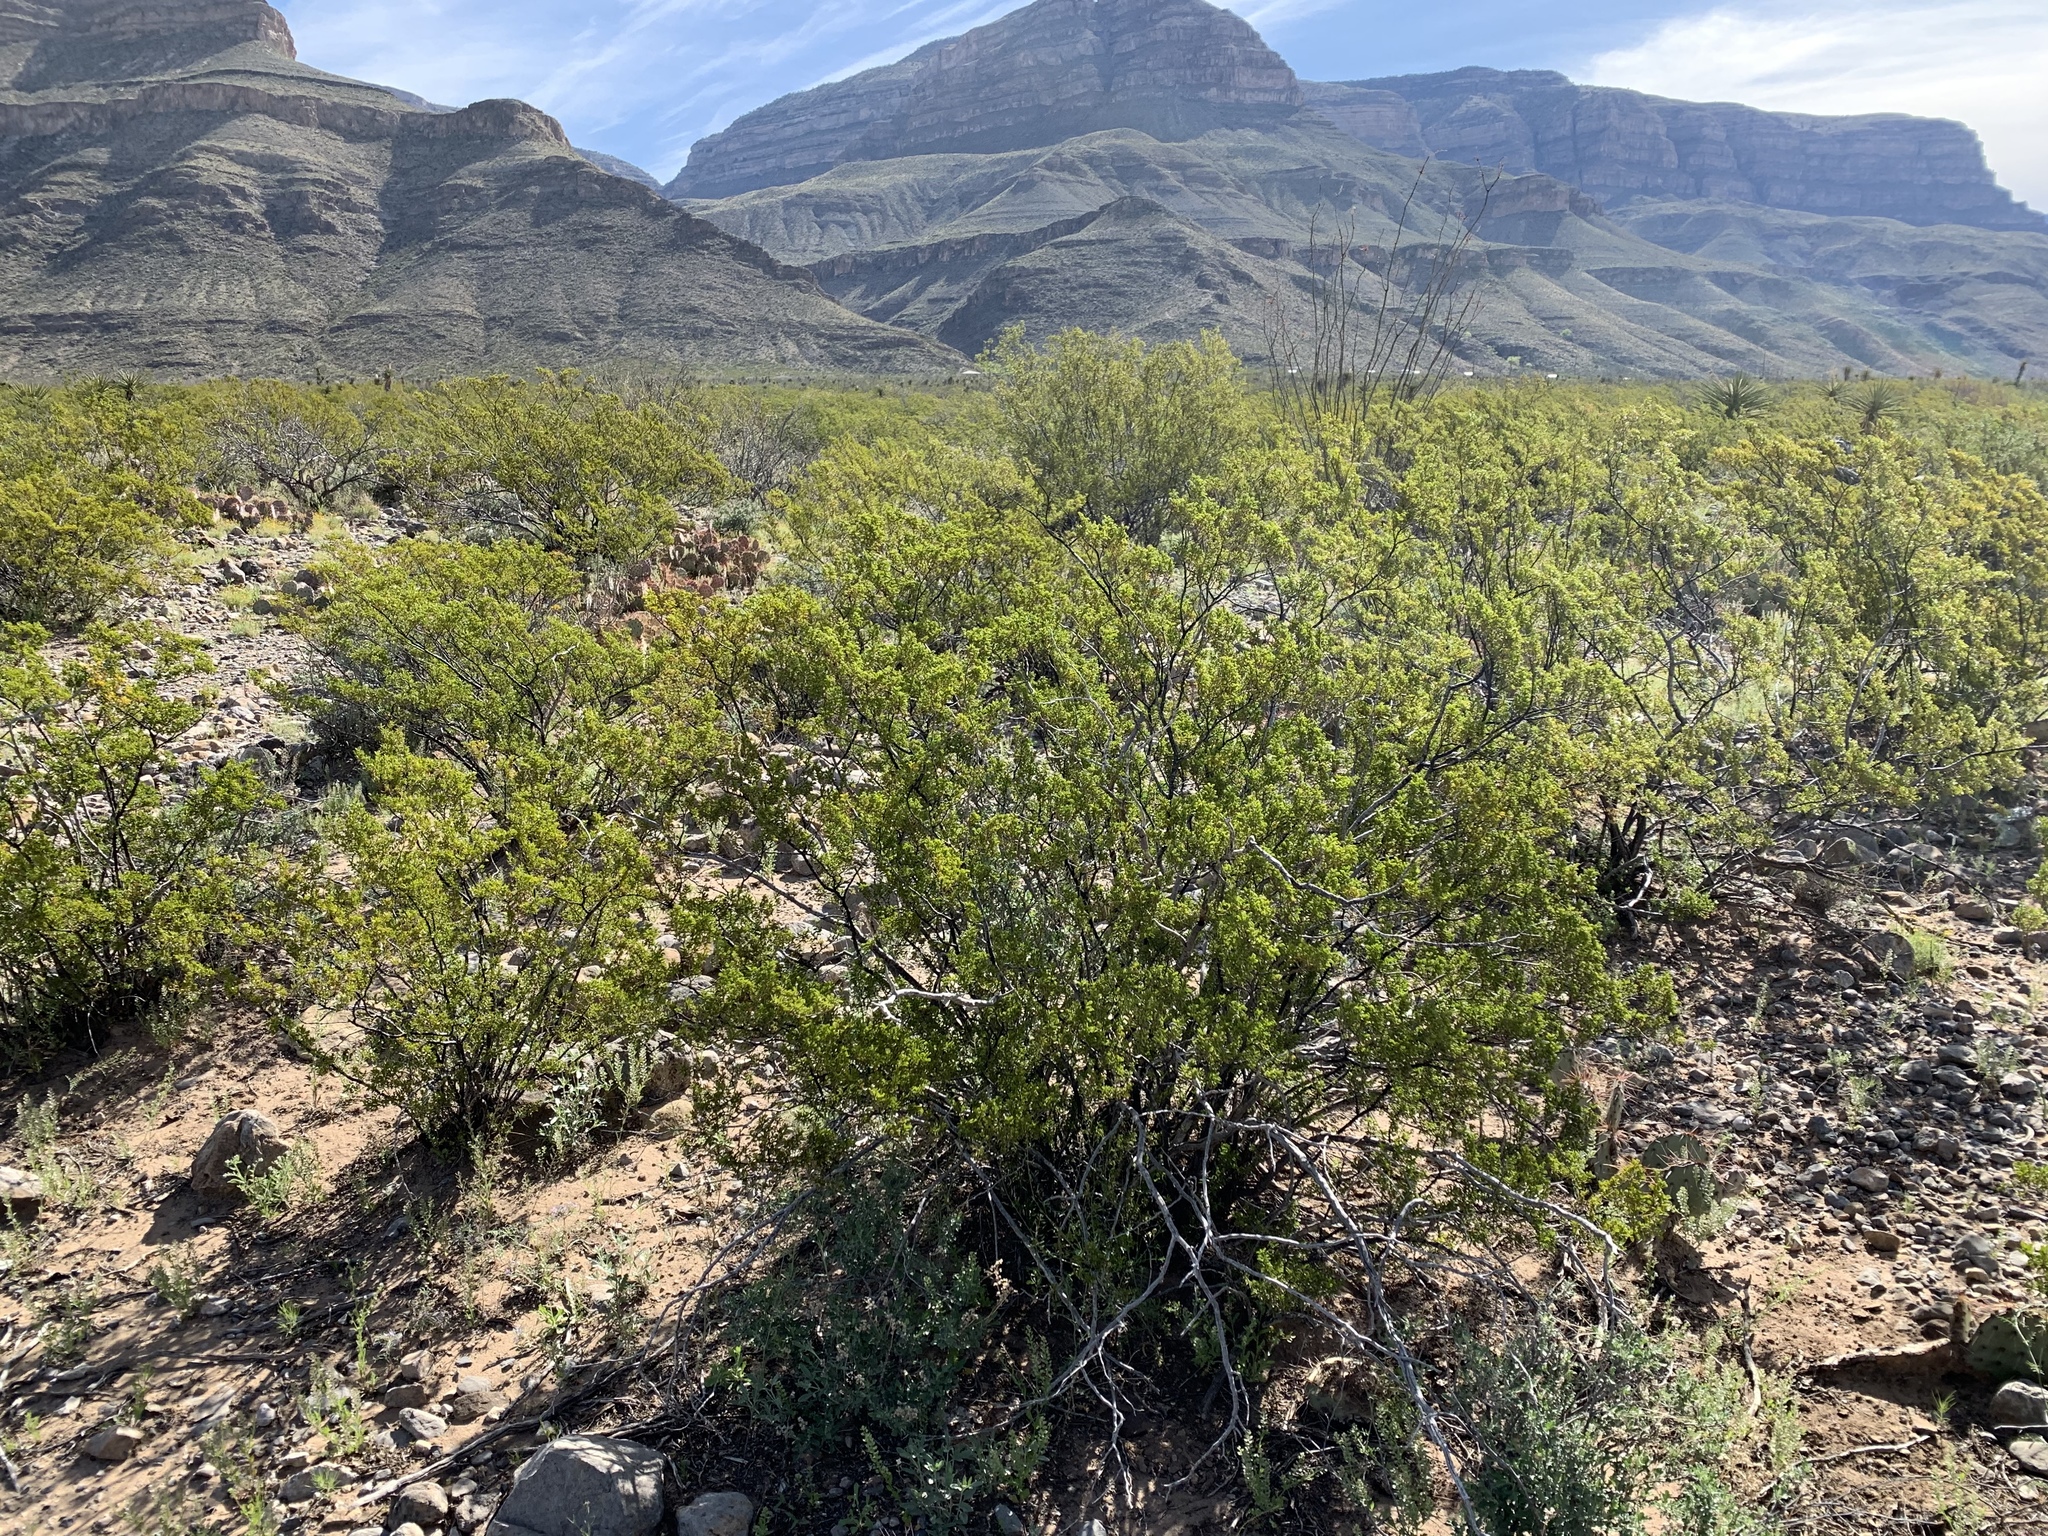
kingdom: Plantae
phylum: Tracheophyta
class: Magnoliopsida
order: Zygophyllales
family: Zygophyllaceae
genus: Larrea
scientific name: Larrea tridentata
